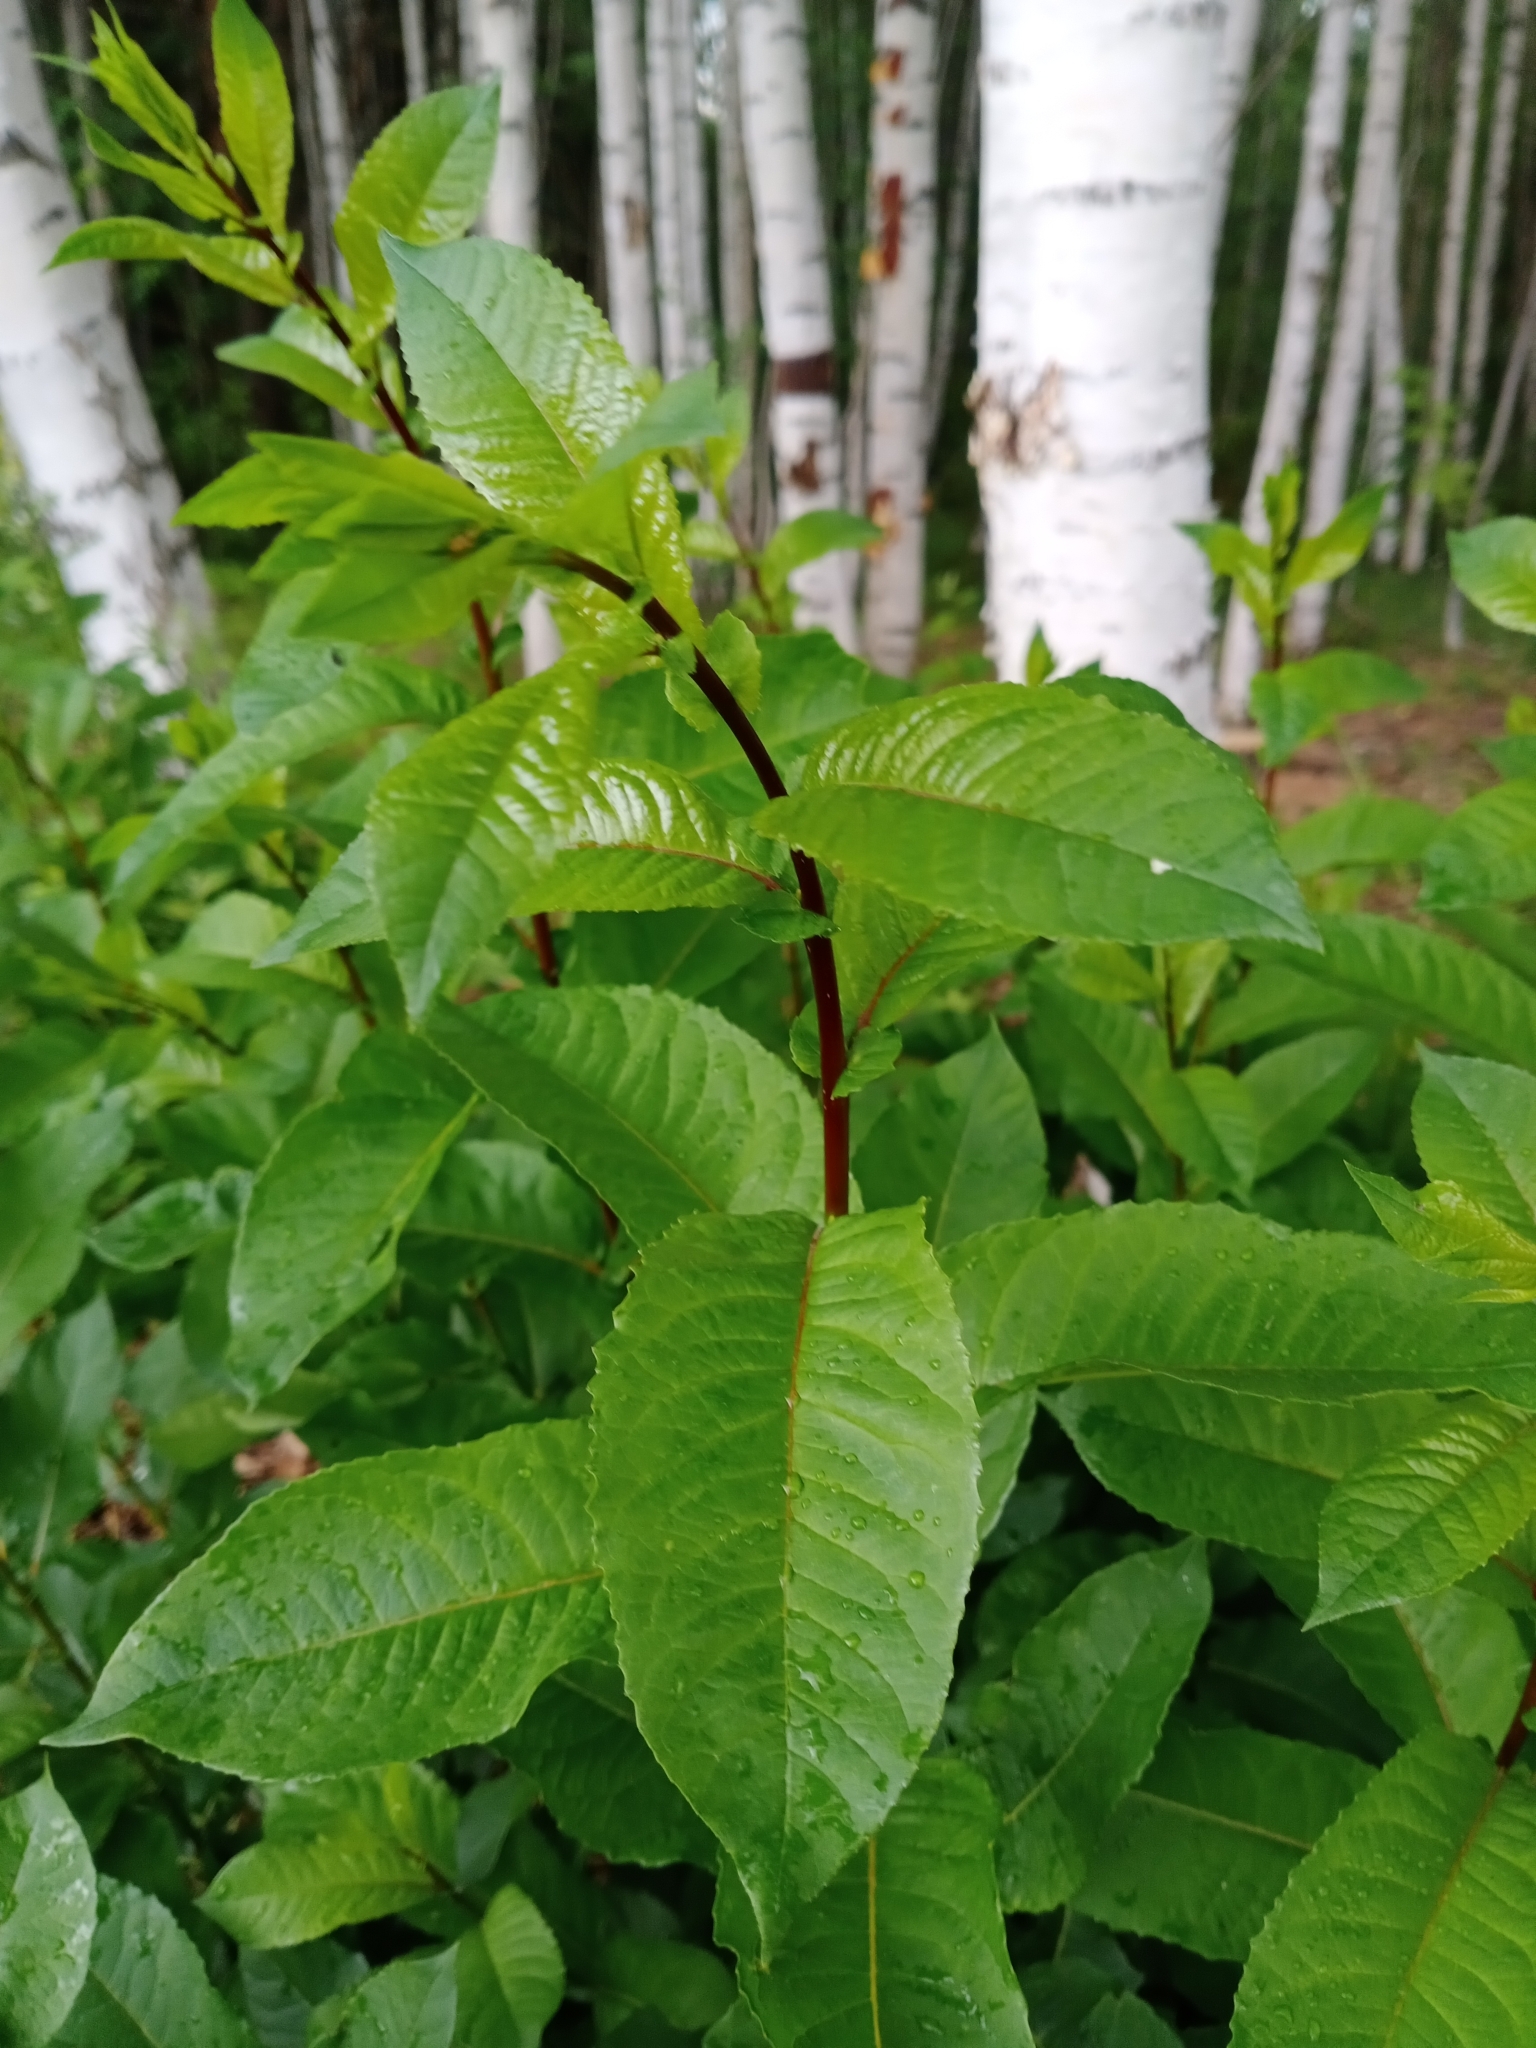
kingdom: Plantae
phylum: Tracheophyta
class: Magnoliopsida
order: Rosales
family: Rosaceae
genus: Prunus
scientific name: Prunus padus
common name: Bird cherry
